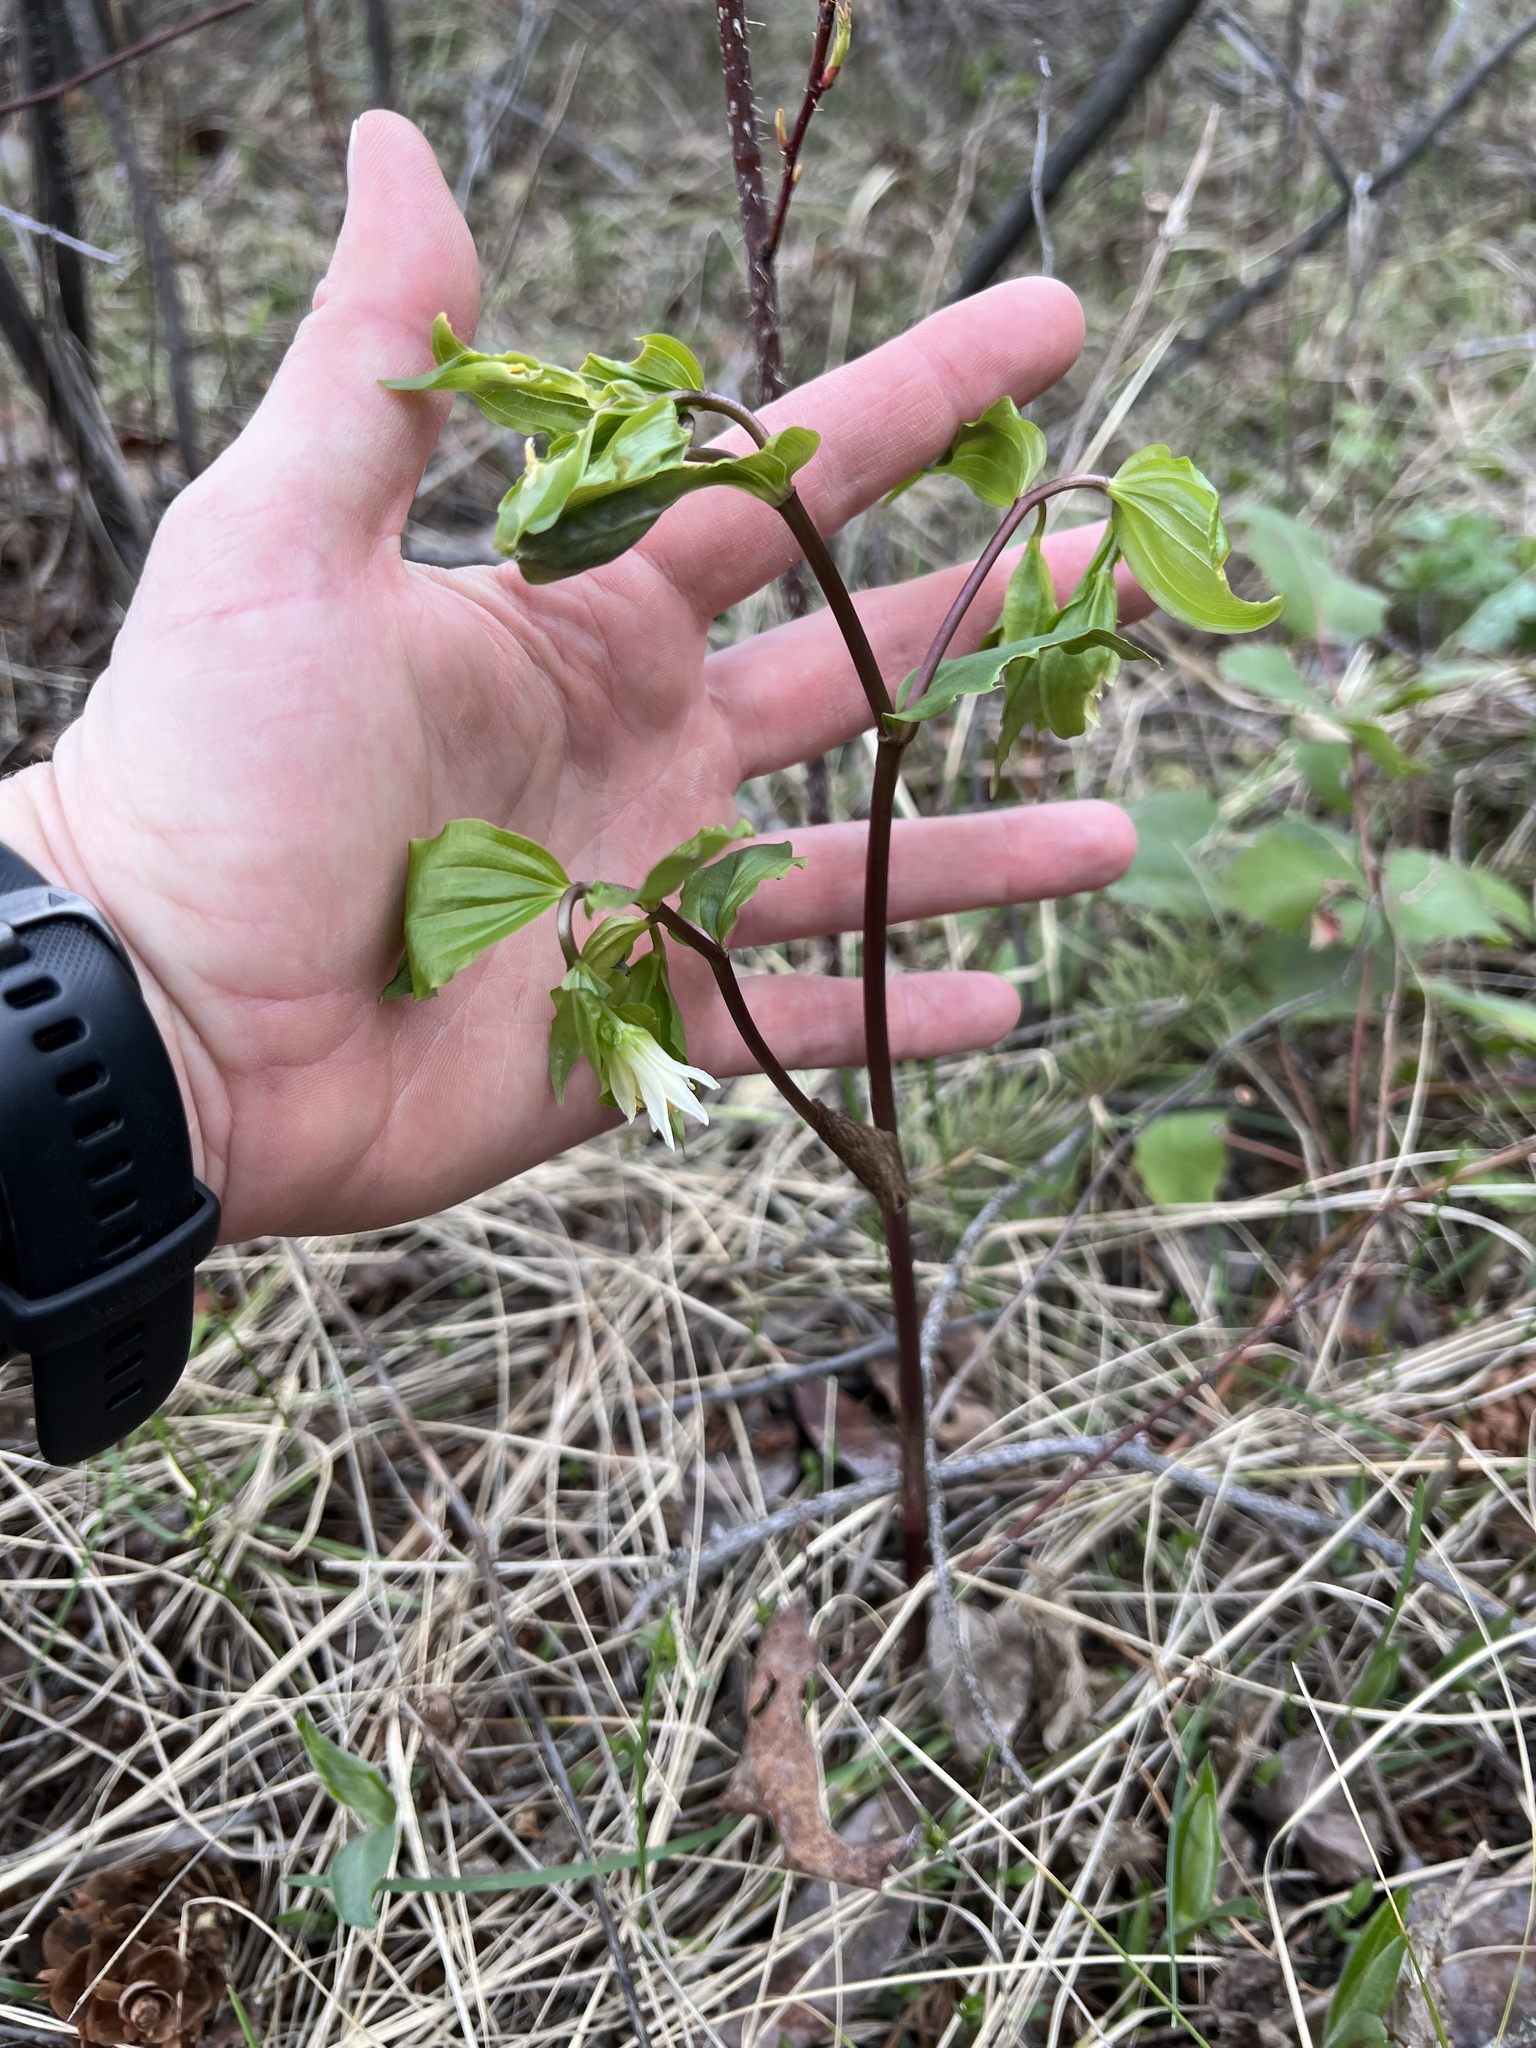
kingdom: Plantae
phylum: Tracheophyta
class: Liliopsida
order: Liliales
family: Liliaceae
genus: Prosartes
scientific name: Prosartes trachycarpa
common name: Rough-fruit fairy-bells
